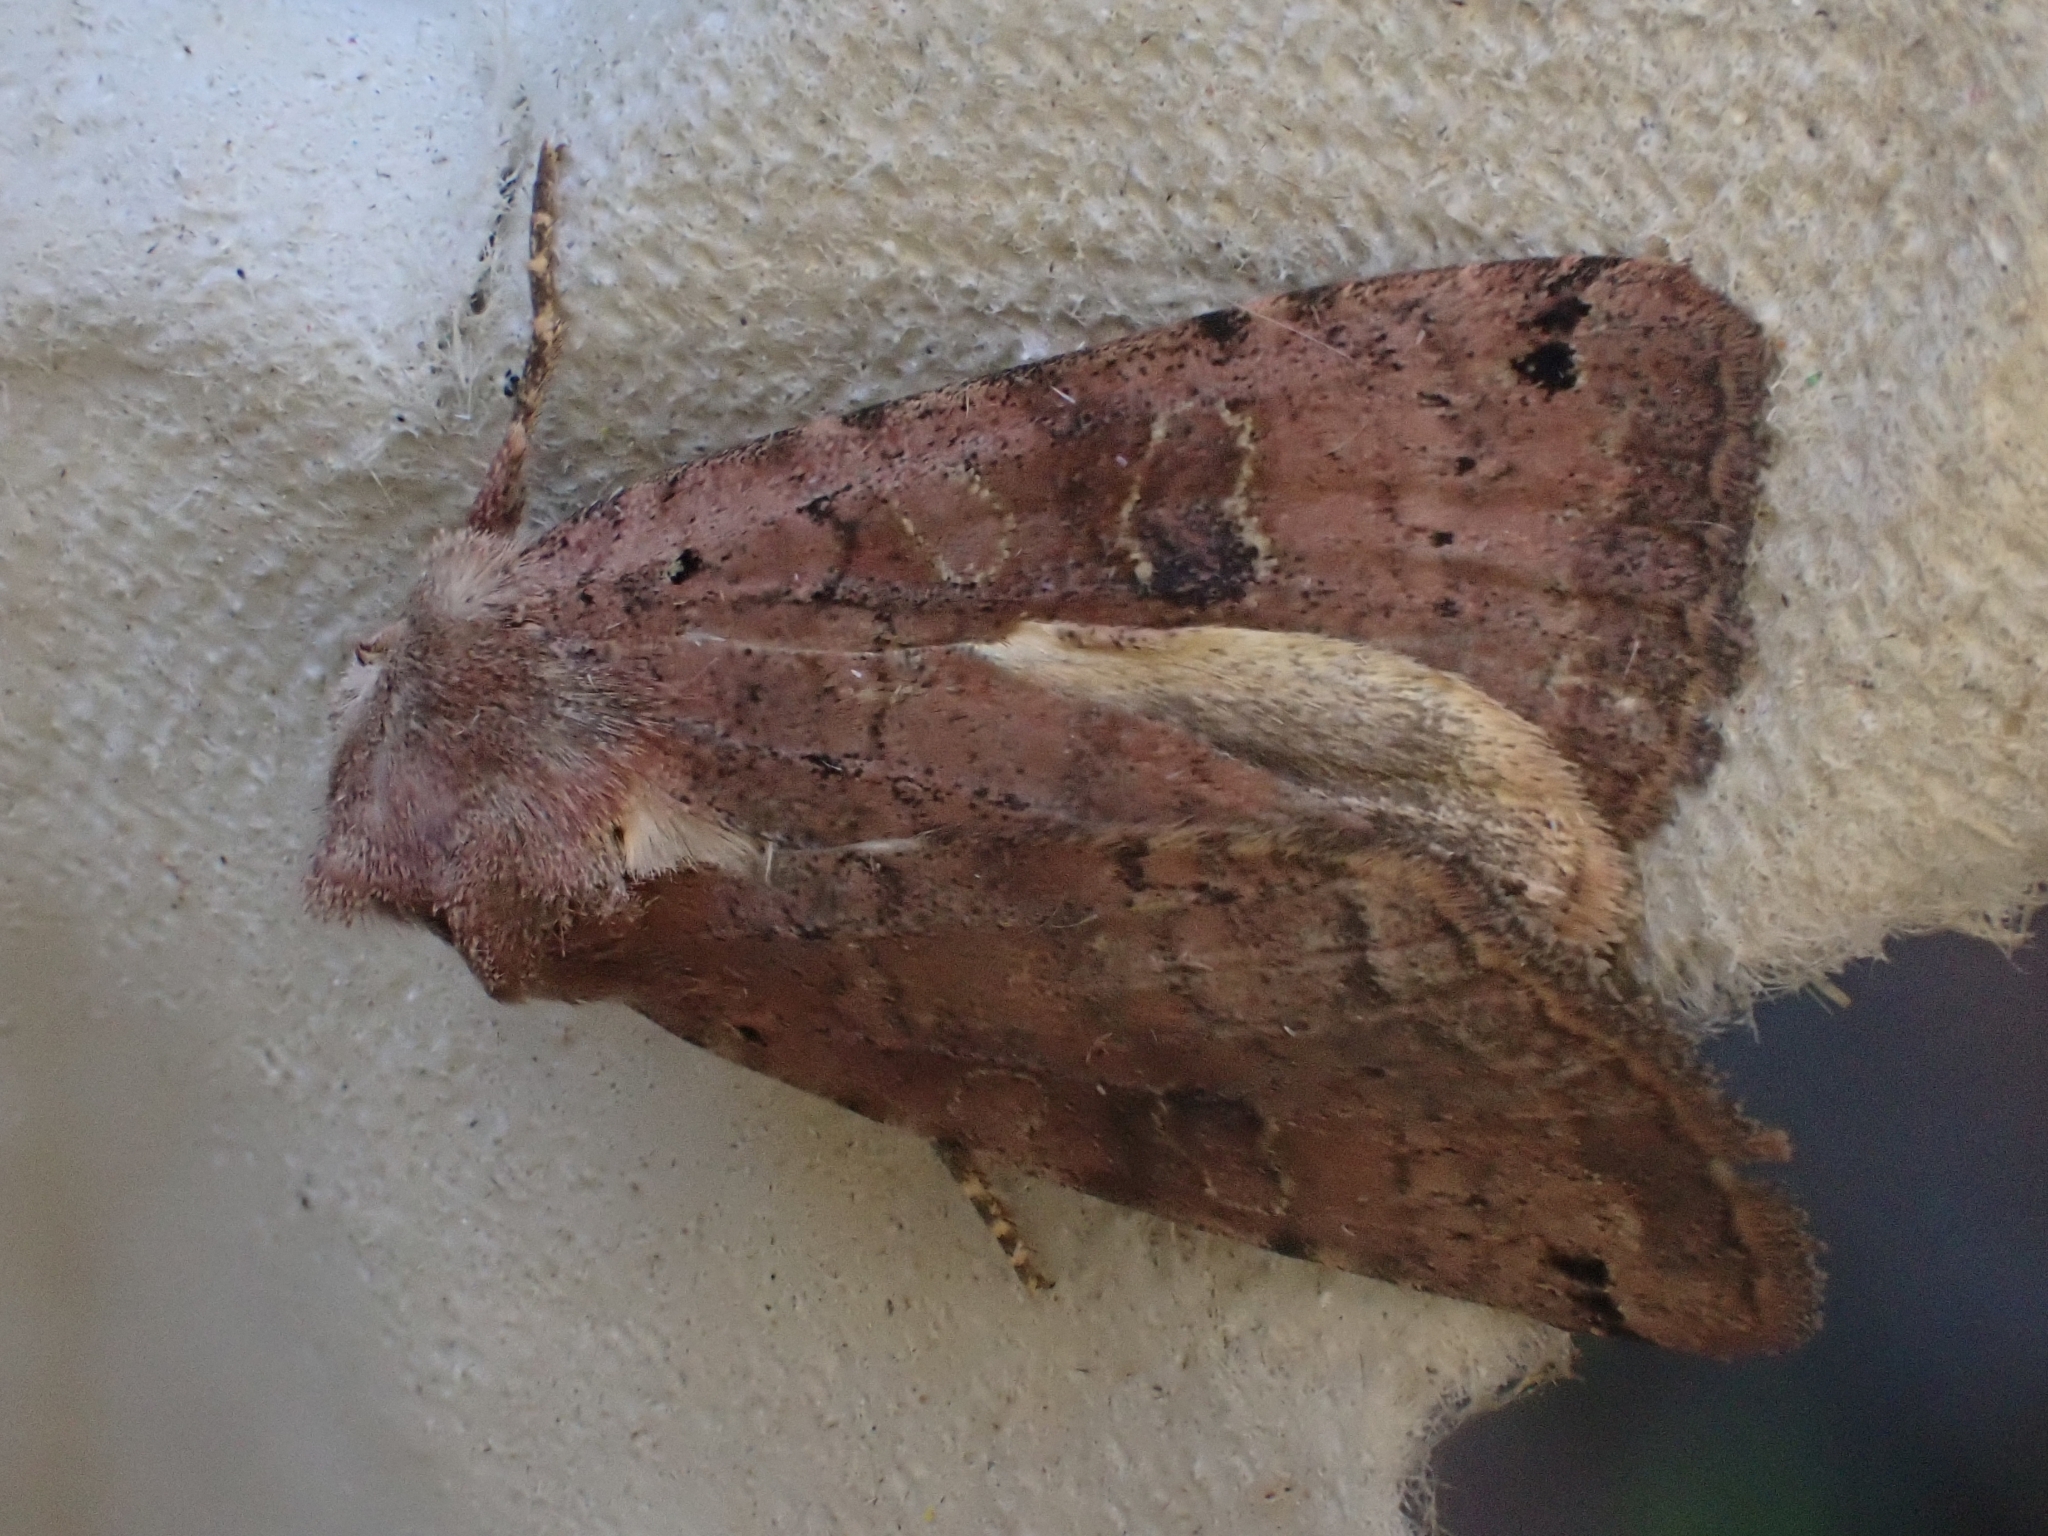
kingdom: Animalia
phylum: Arthropoda
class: Insecta
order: Lepidoptera
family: Noctuidae
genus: Xestia
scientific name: Xestia baja
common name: Dotted clay
